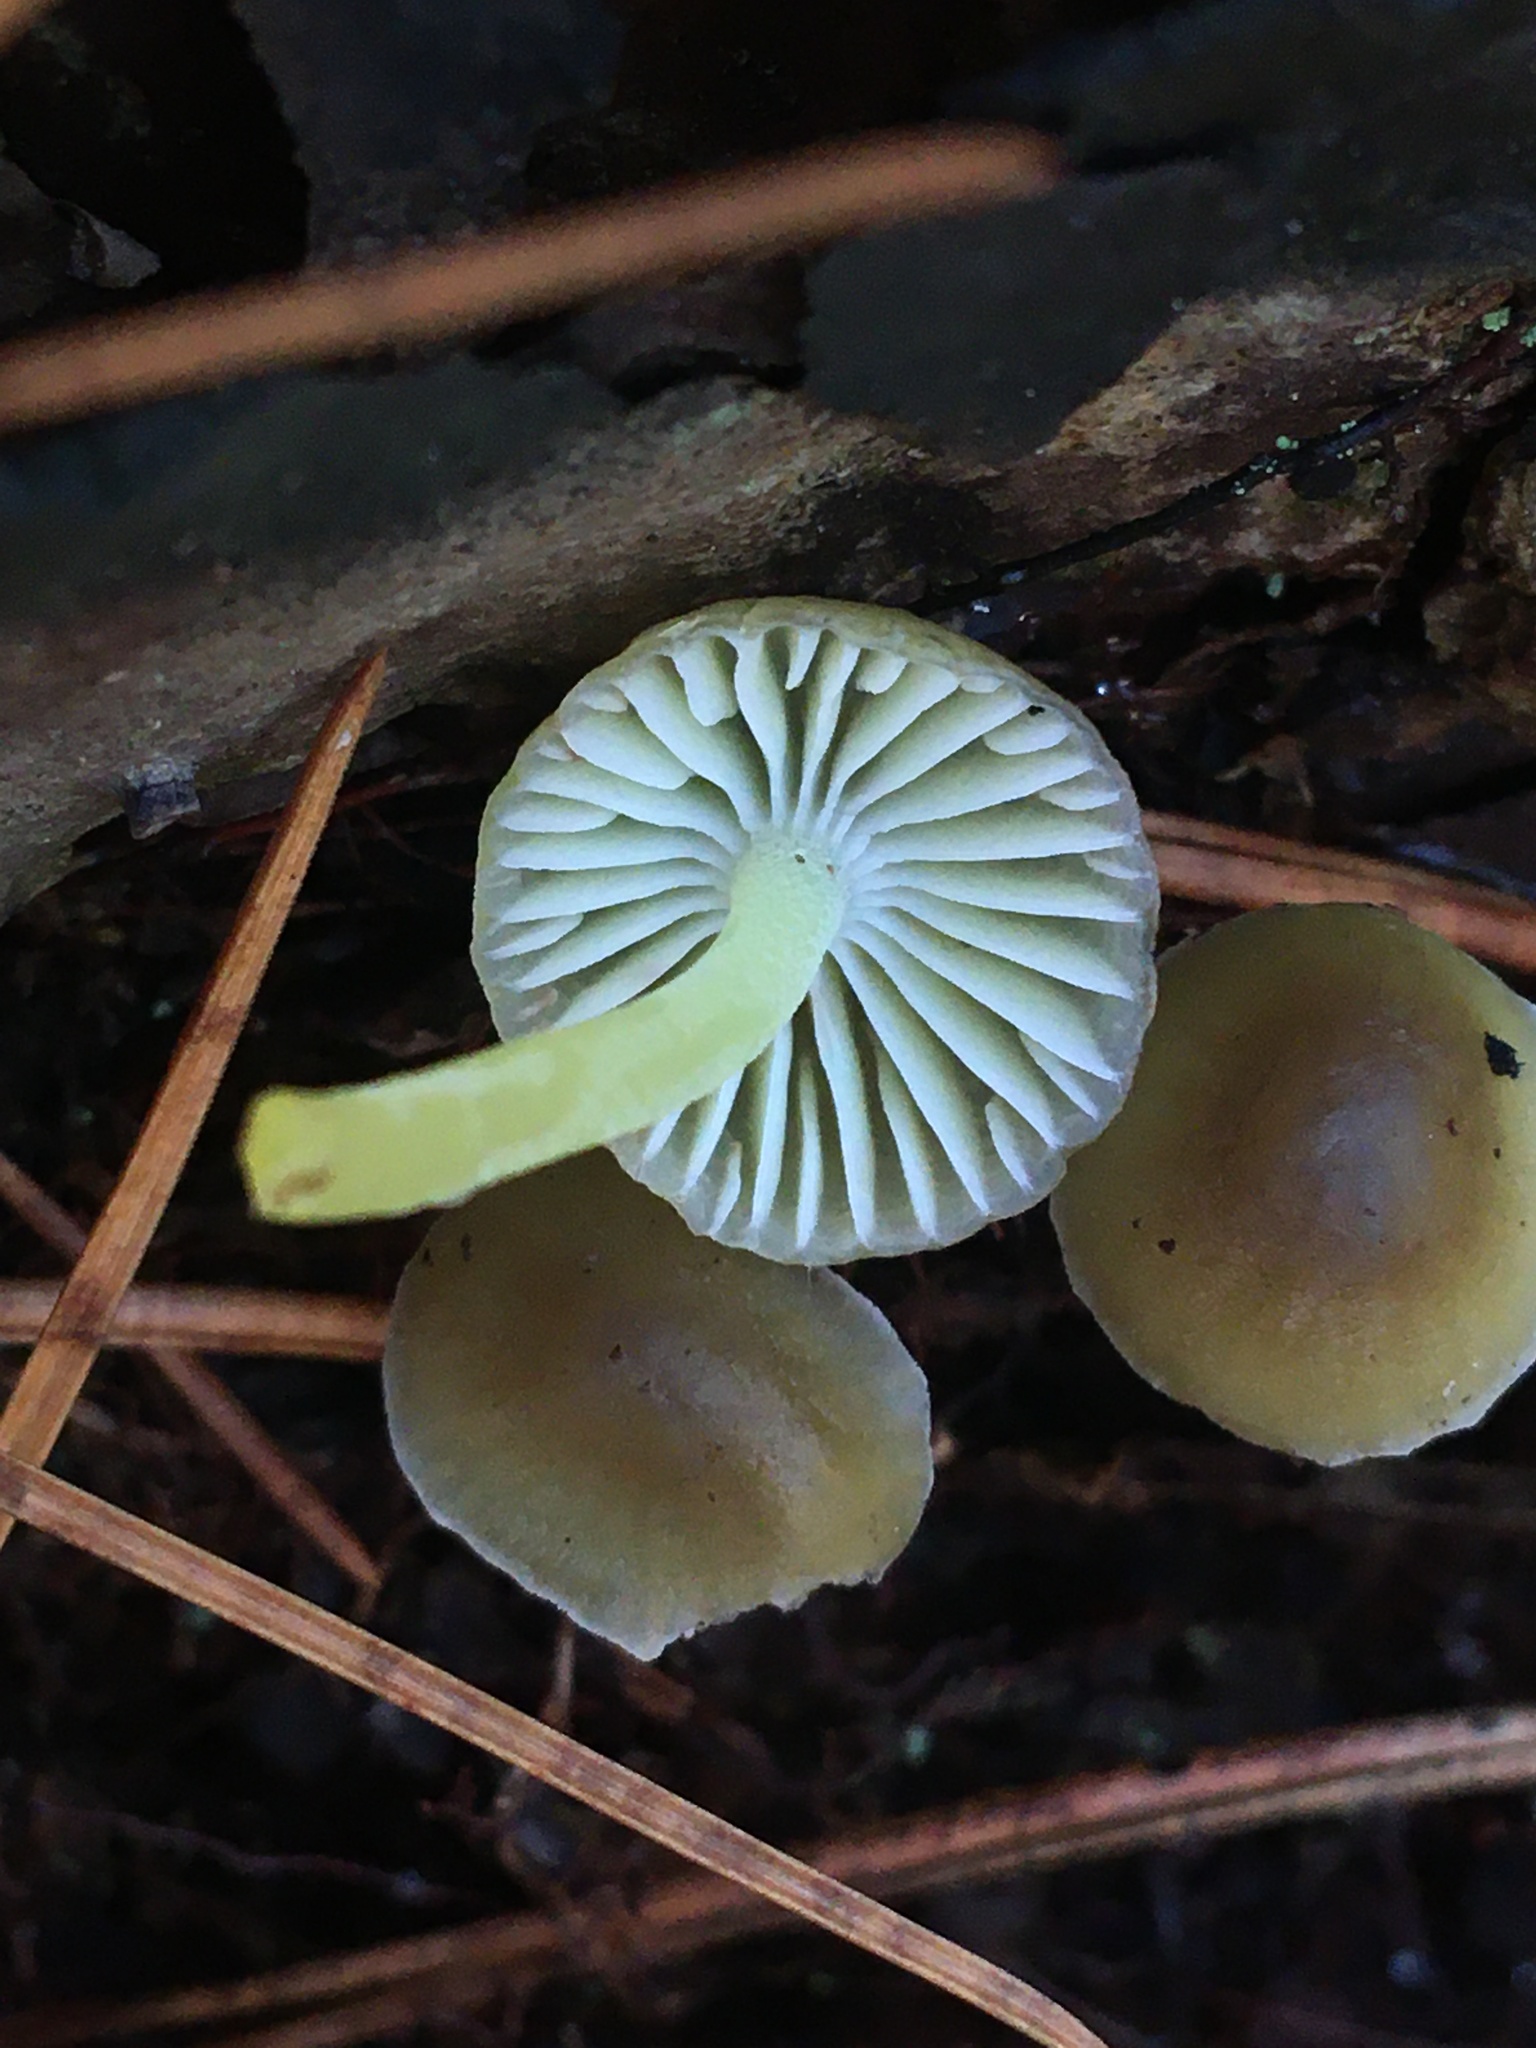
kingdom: Fungi
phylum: Basidiomycota
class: Agaricomycetes
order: Agaricales
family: Mycenaceae
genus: Mycena
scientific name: Mycena epipterygia
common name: Yellowleg bonnet
